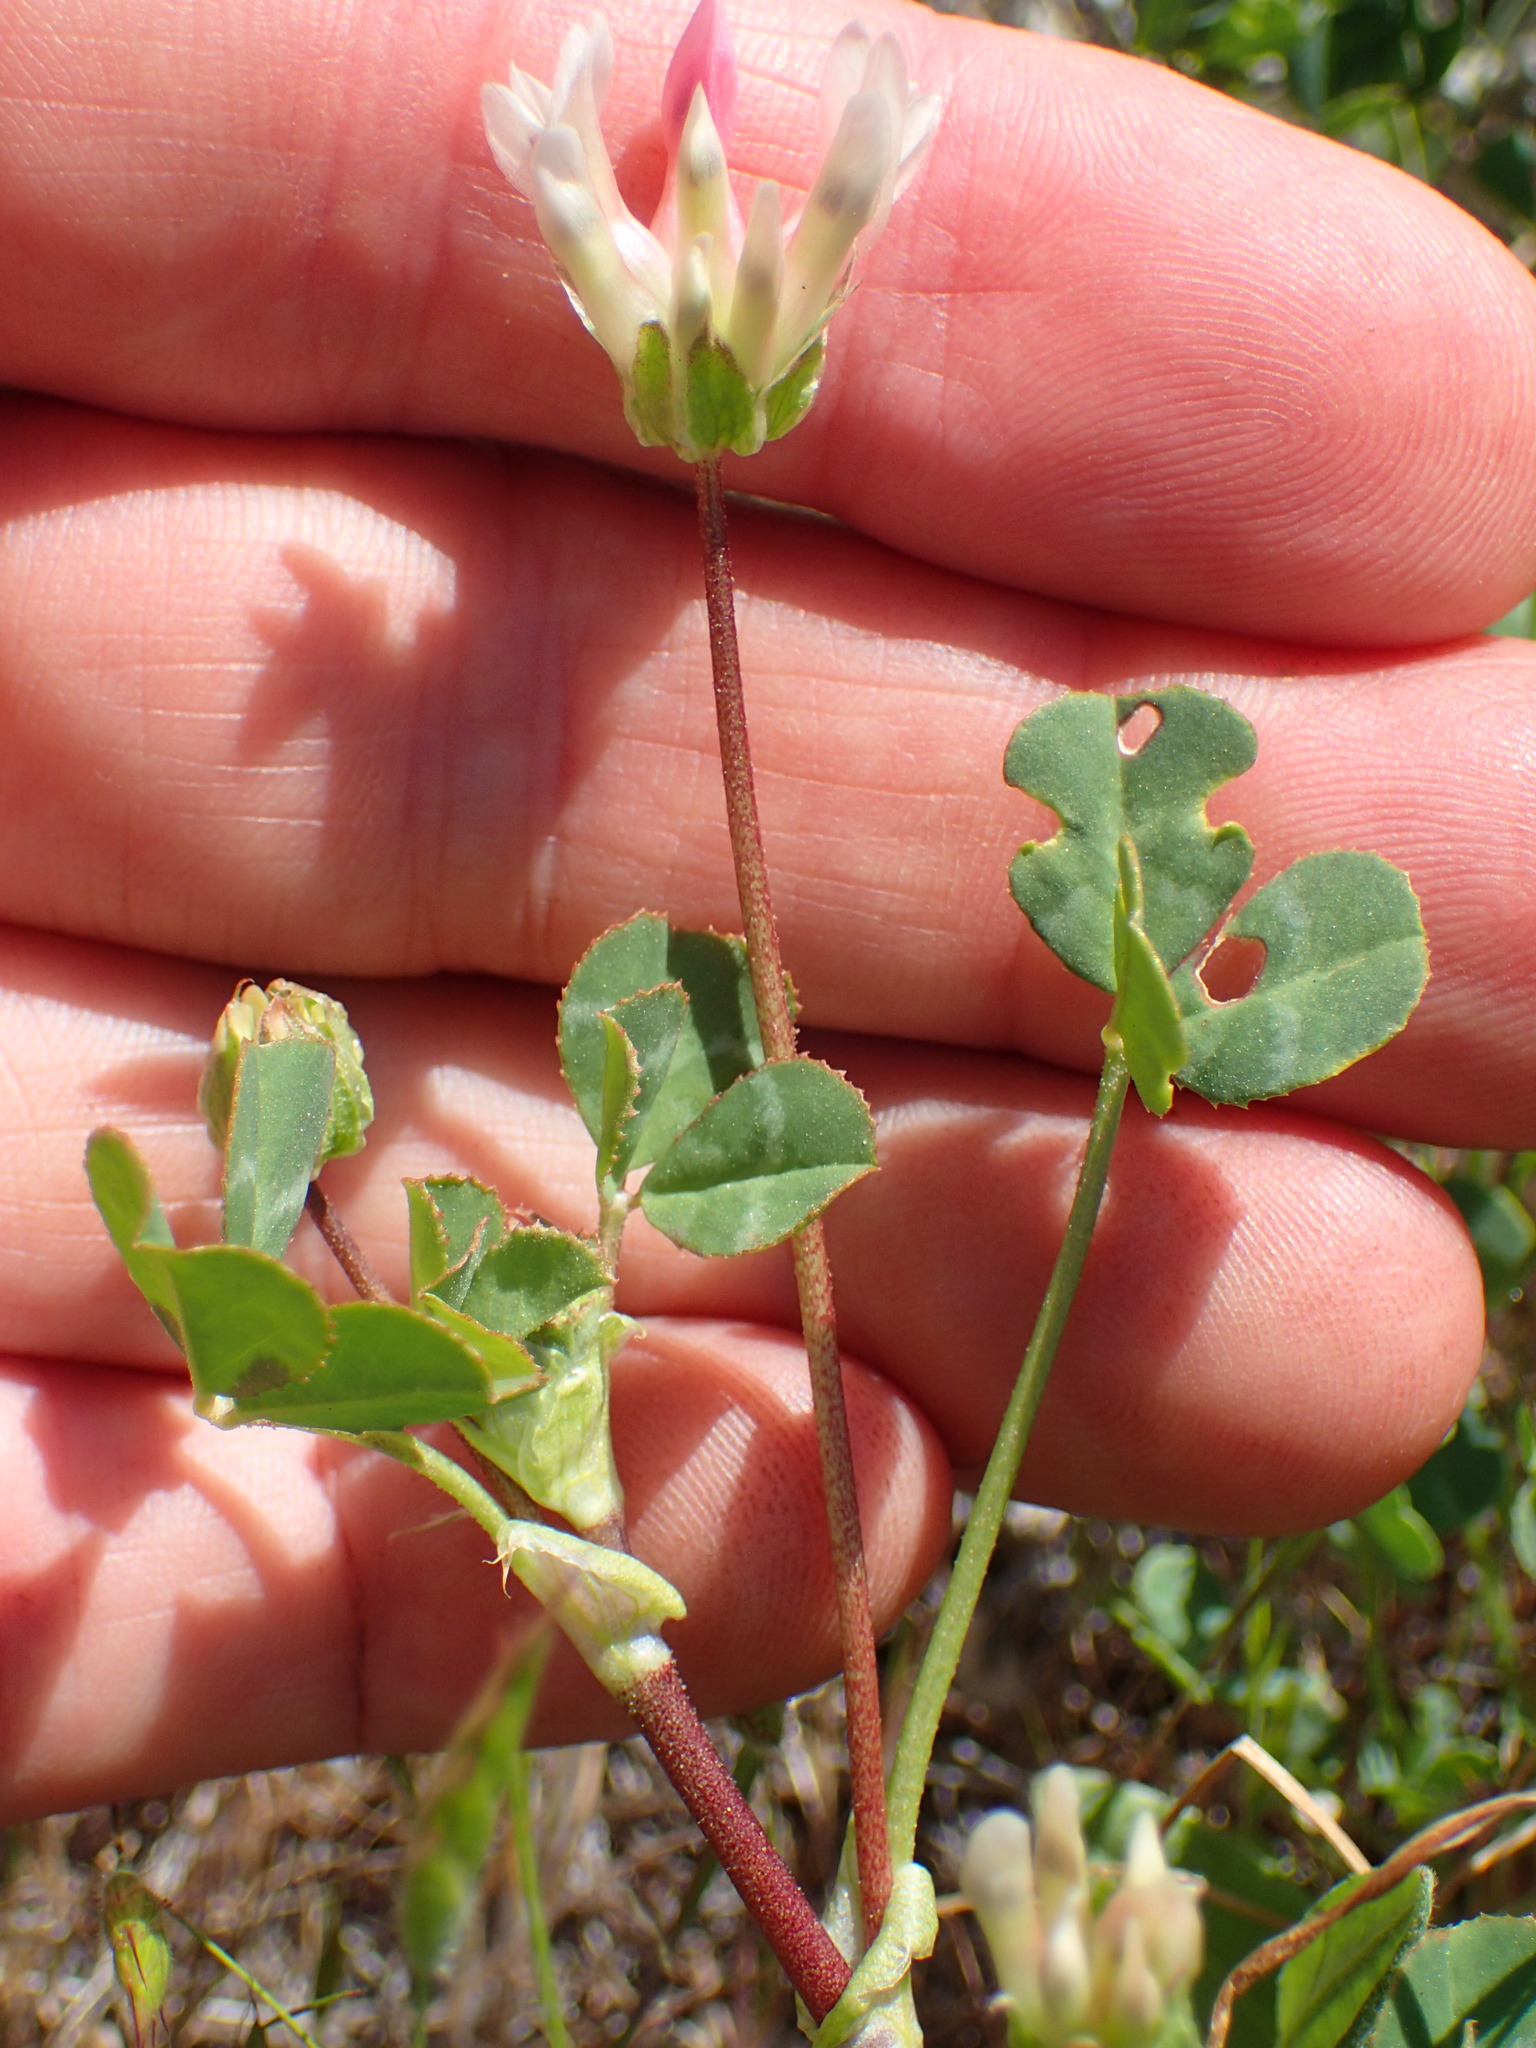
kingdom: Plantae
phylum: Tracheophyta
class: Magnoliopsida
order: Fabales
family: Fabaceae
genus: Trifolium
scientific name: Trifolium fucatum
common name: Puff clover
